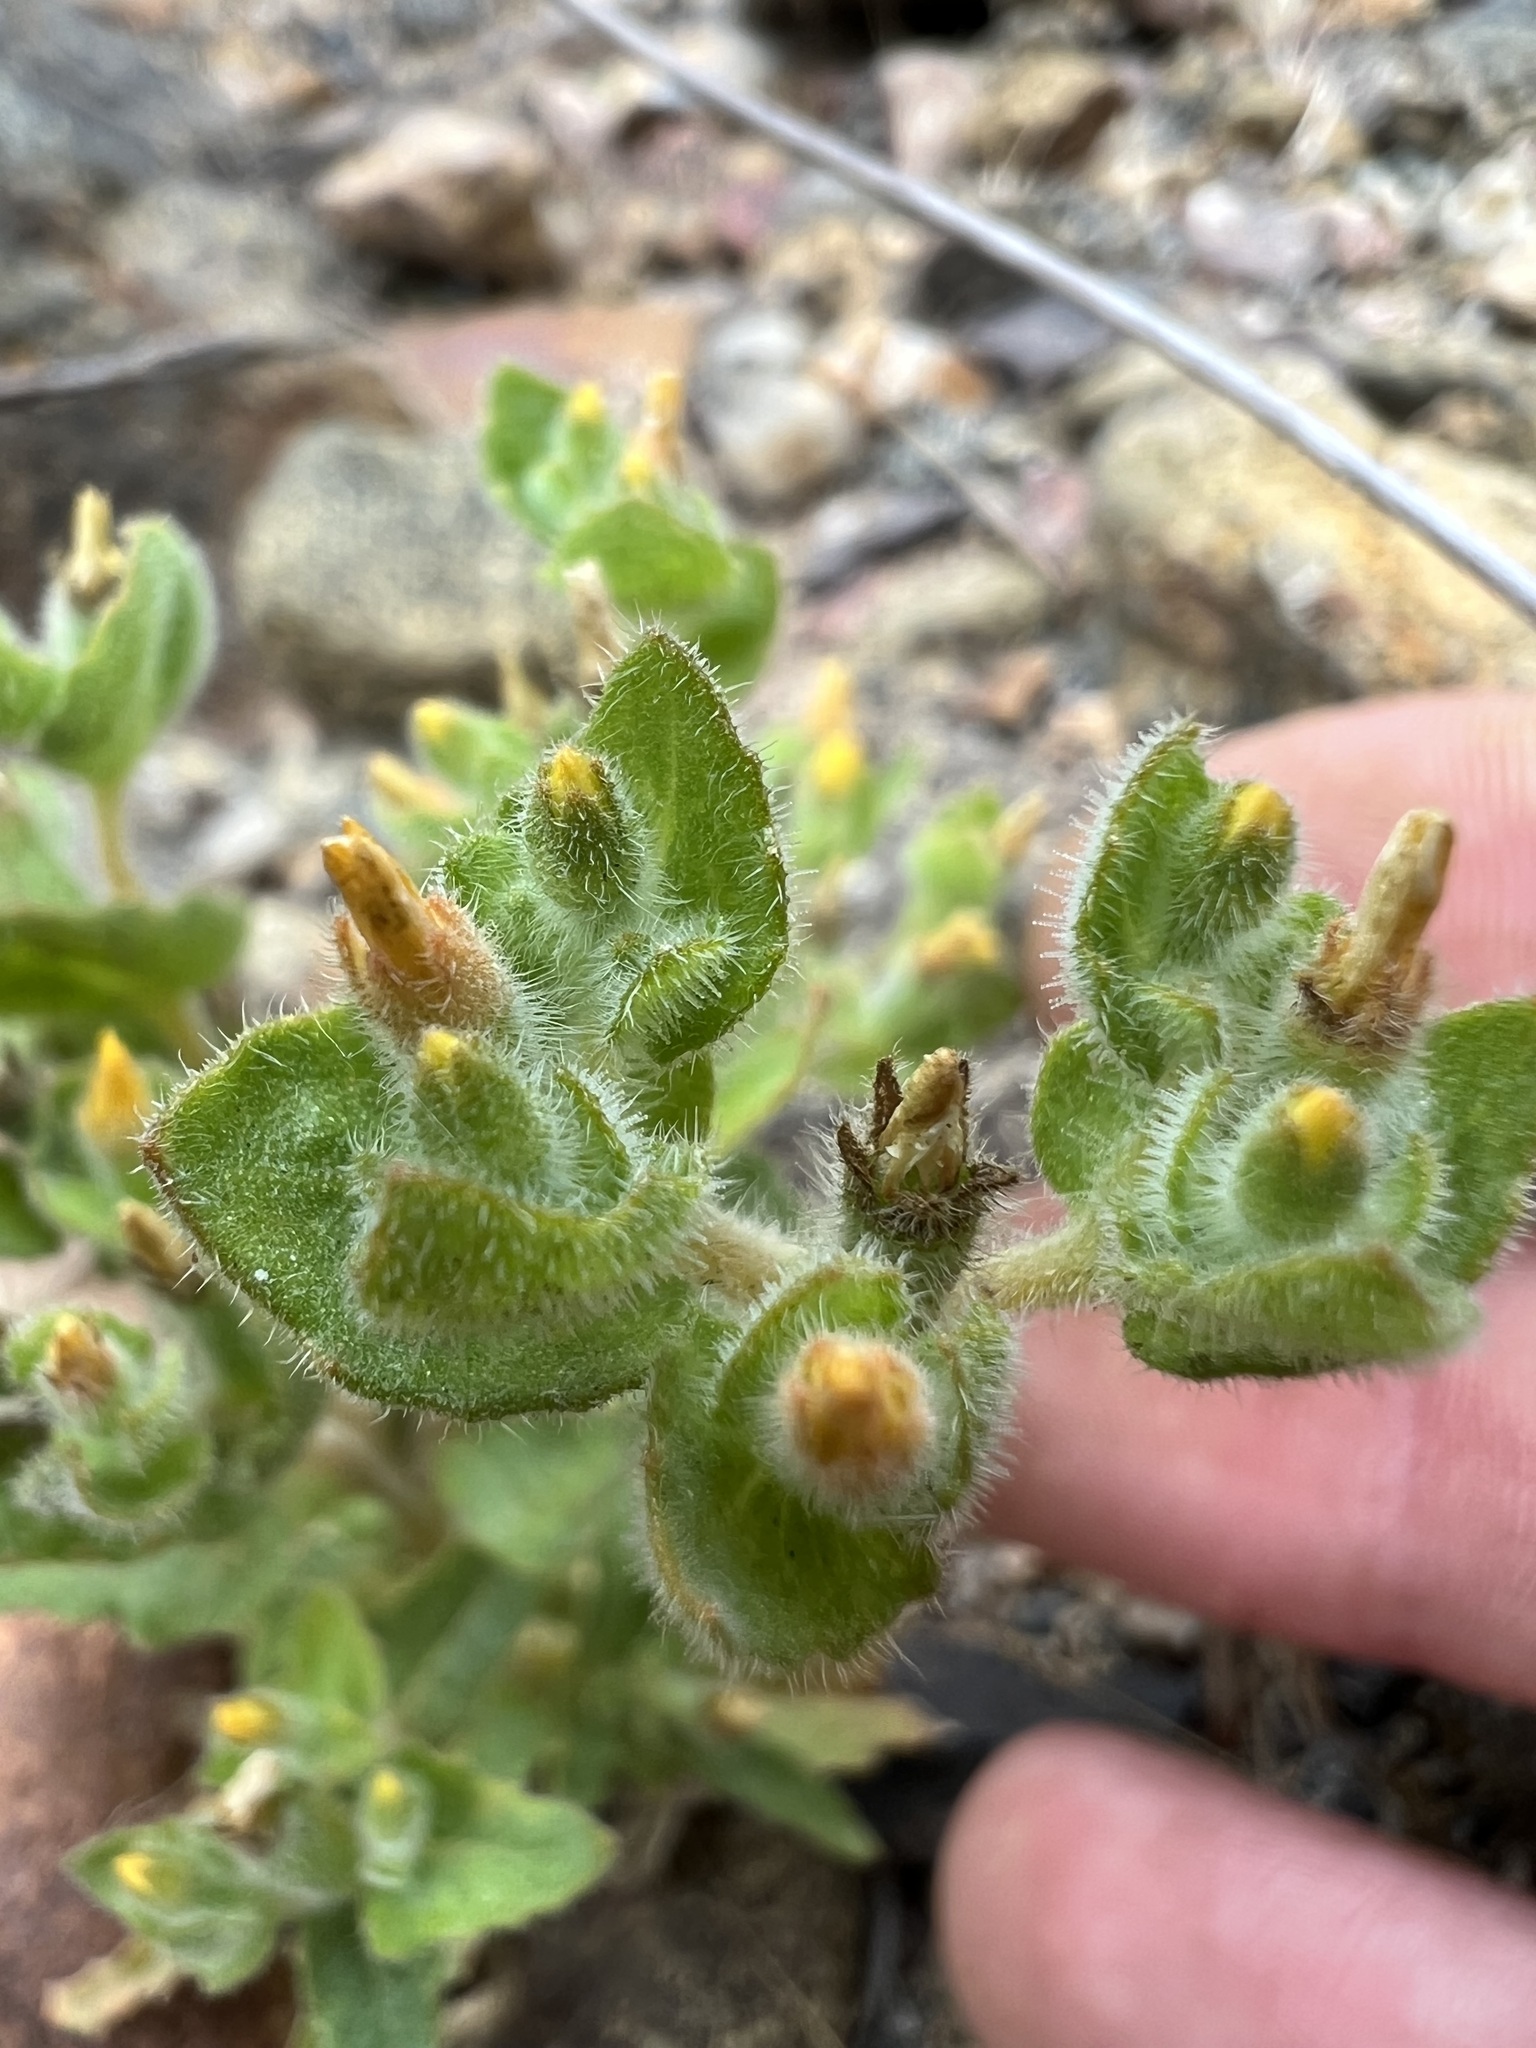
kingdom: Plantae
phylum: Tracheophyta
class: Magnoliopsida
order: Cornales
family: Loasaceae
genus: Mentzelia
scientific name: Mentzelia micrantha
